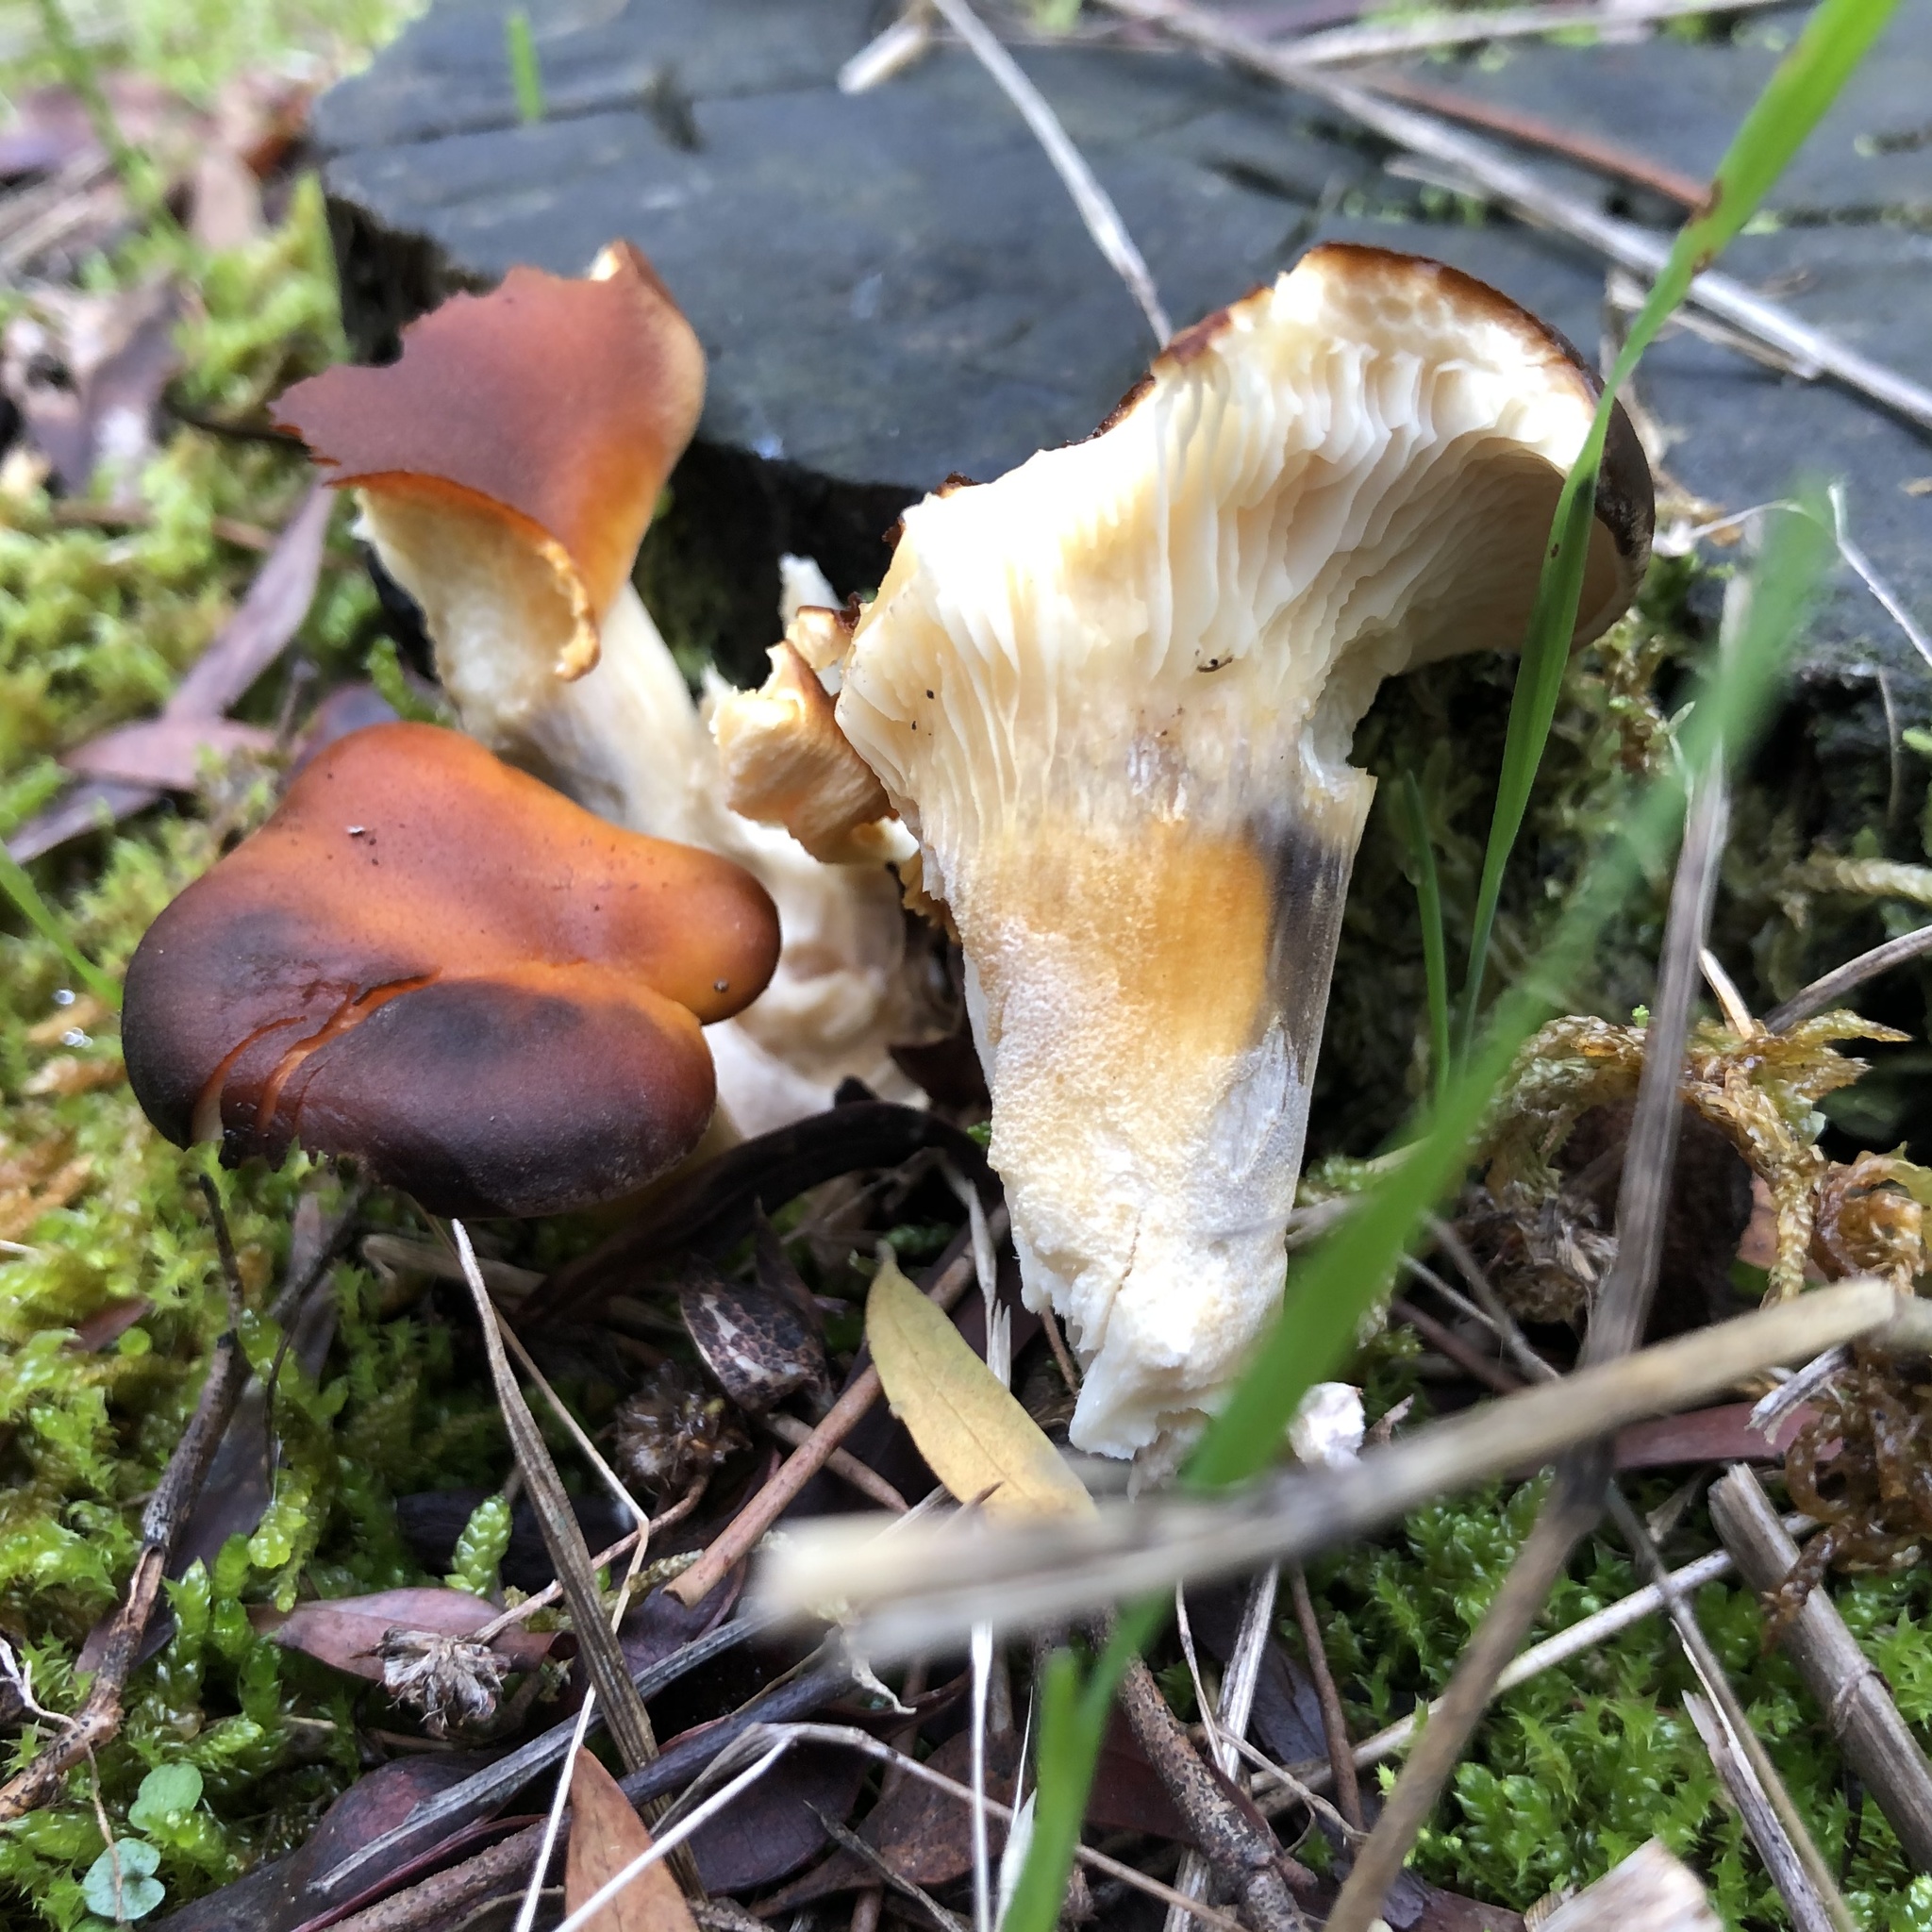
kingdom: Fungi
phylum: Basidiomycota
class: Agaricomycetes
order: Agaricales
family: Omphalotaceae
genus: Omphalotus
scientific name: Omphalotus nidiformis
